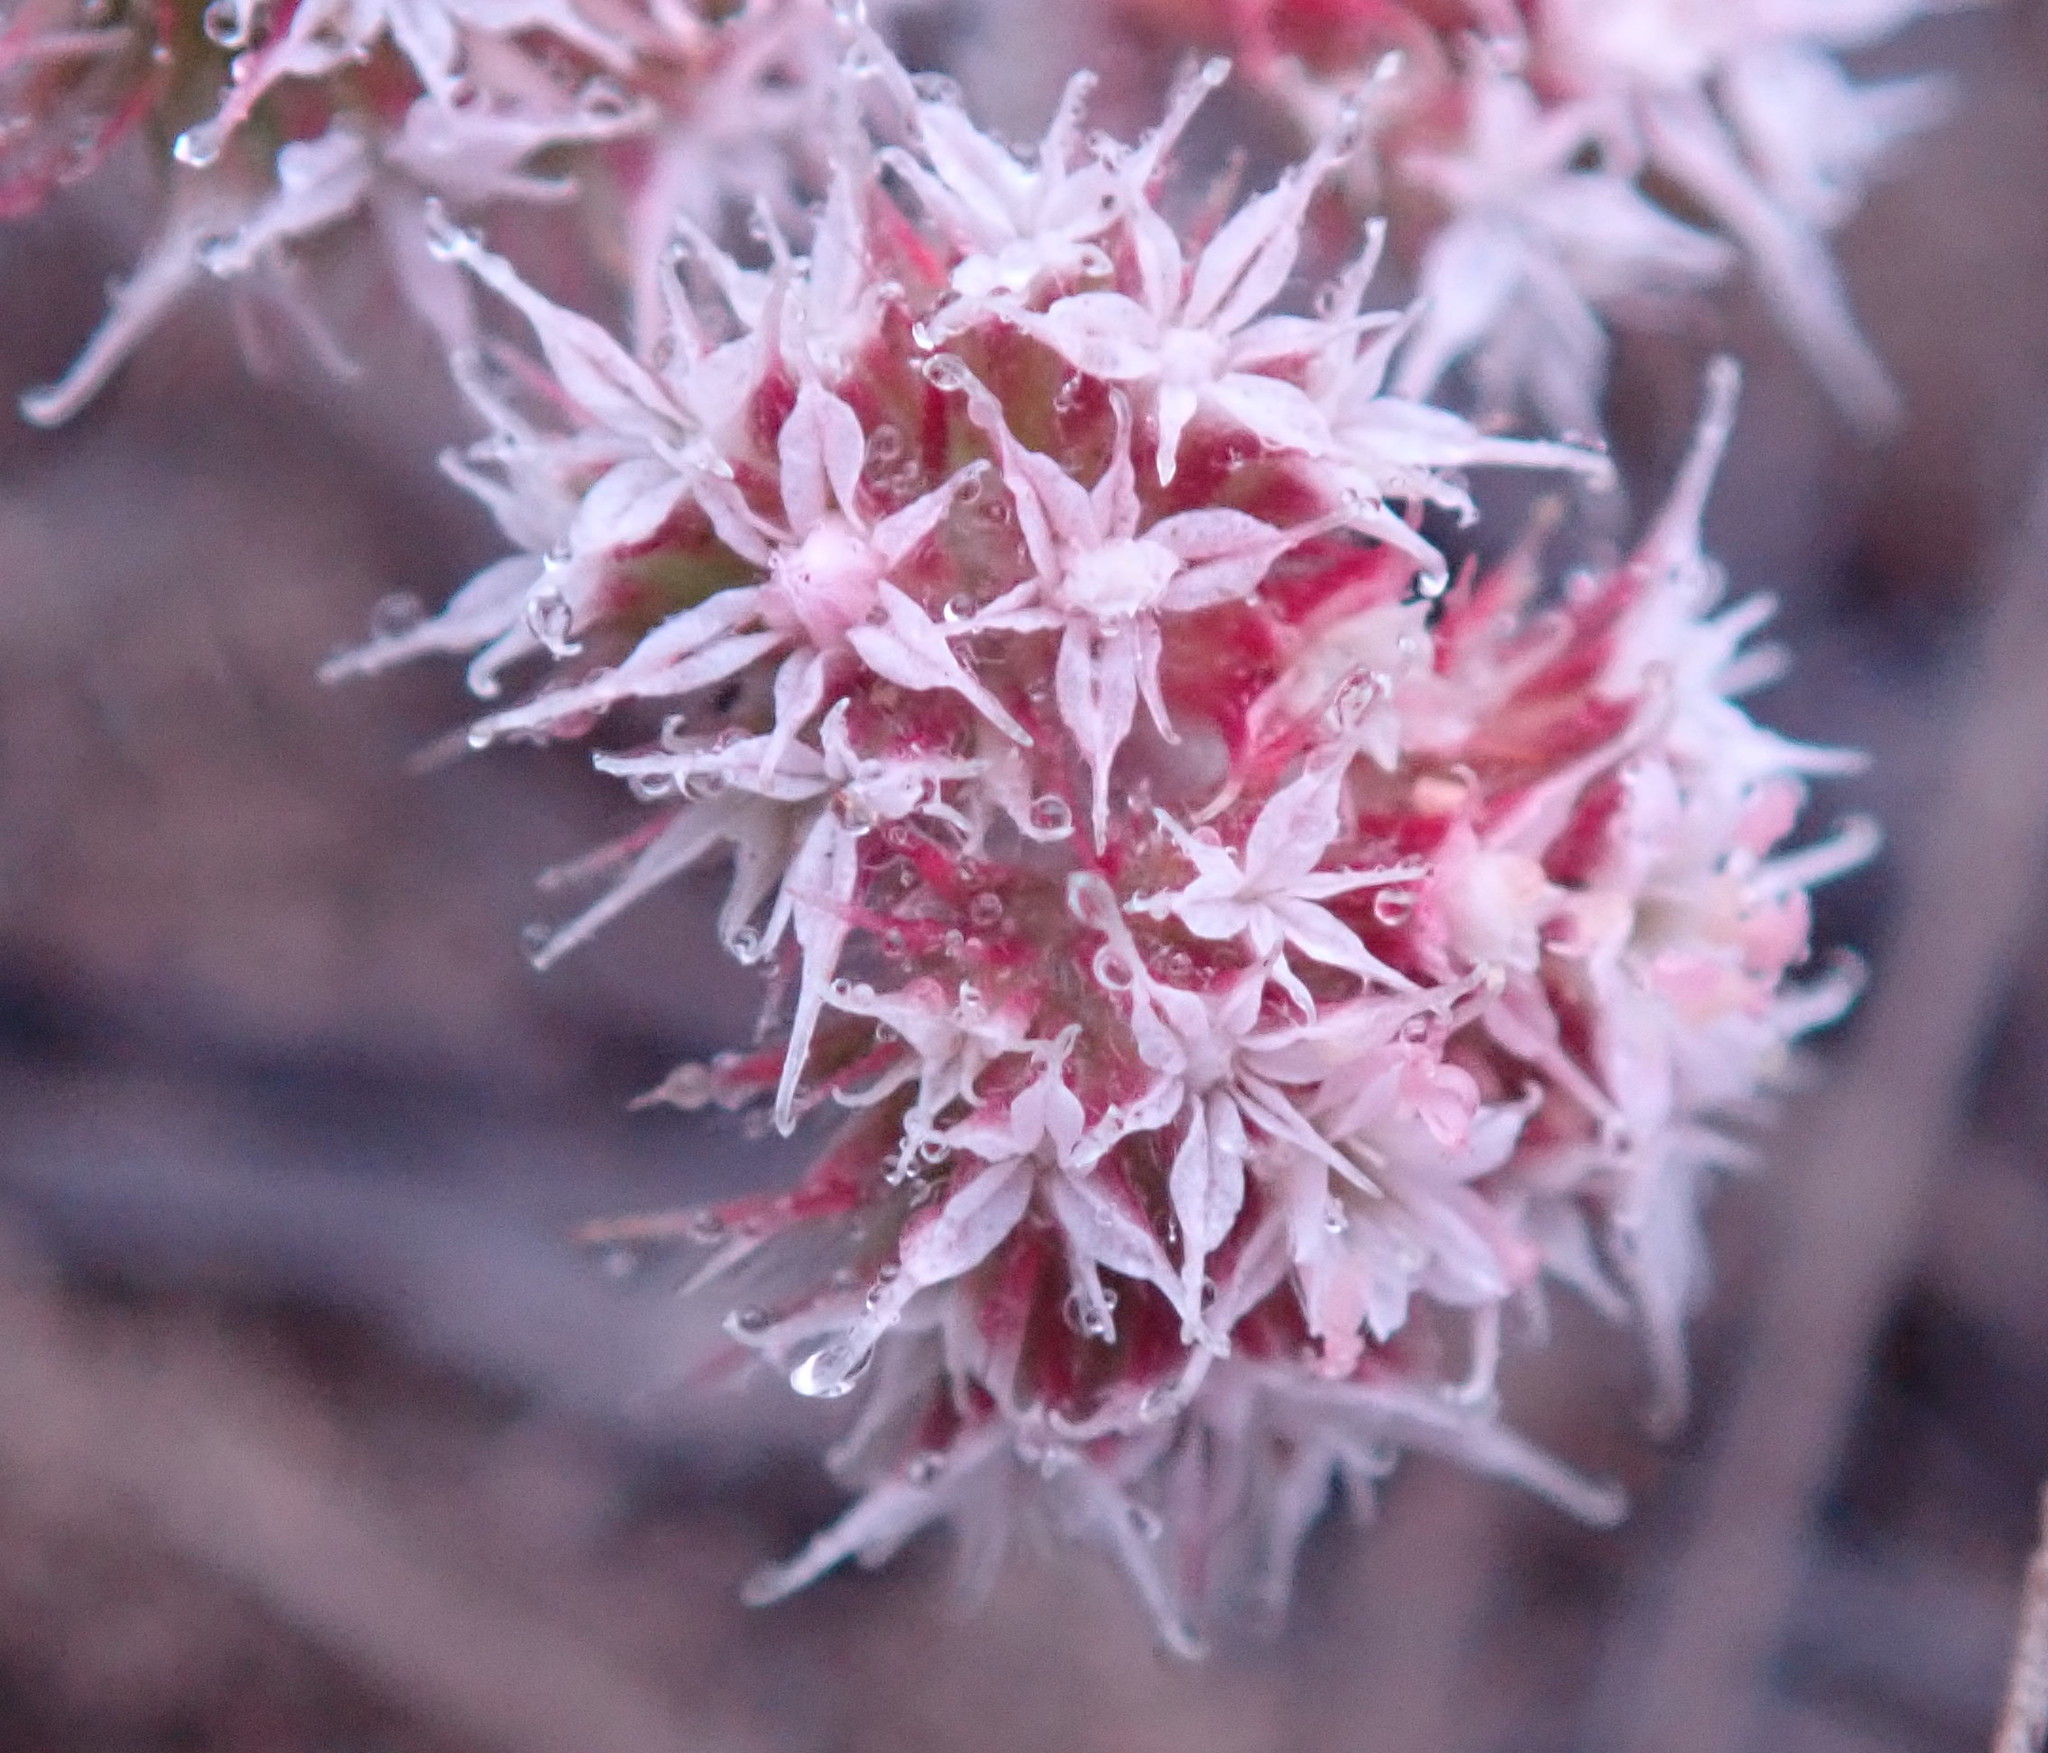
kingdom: Plantae
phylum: Tracheophyta
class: Magnoliopsida
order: Caryophyllales
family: Polygonaceae
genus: Chorizanthe
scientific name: Chorizanthe pungens
